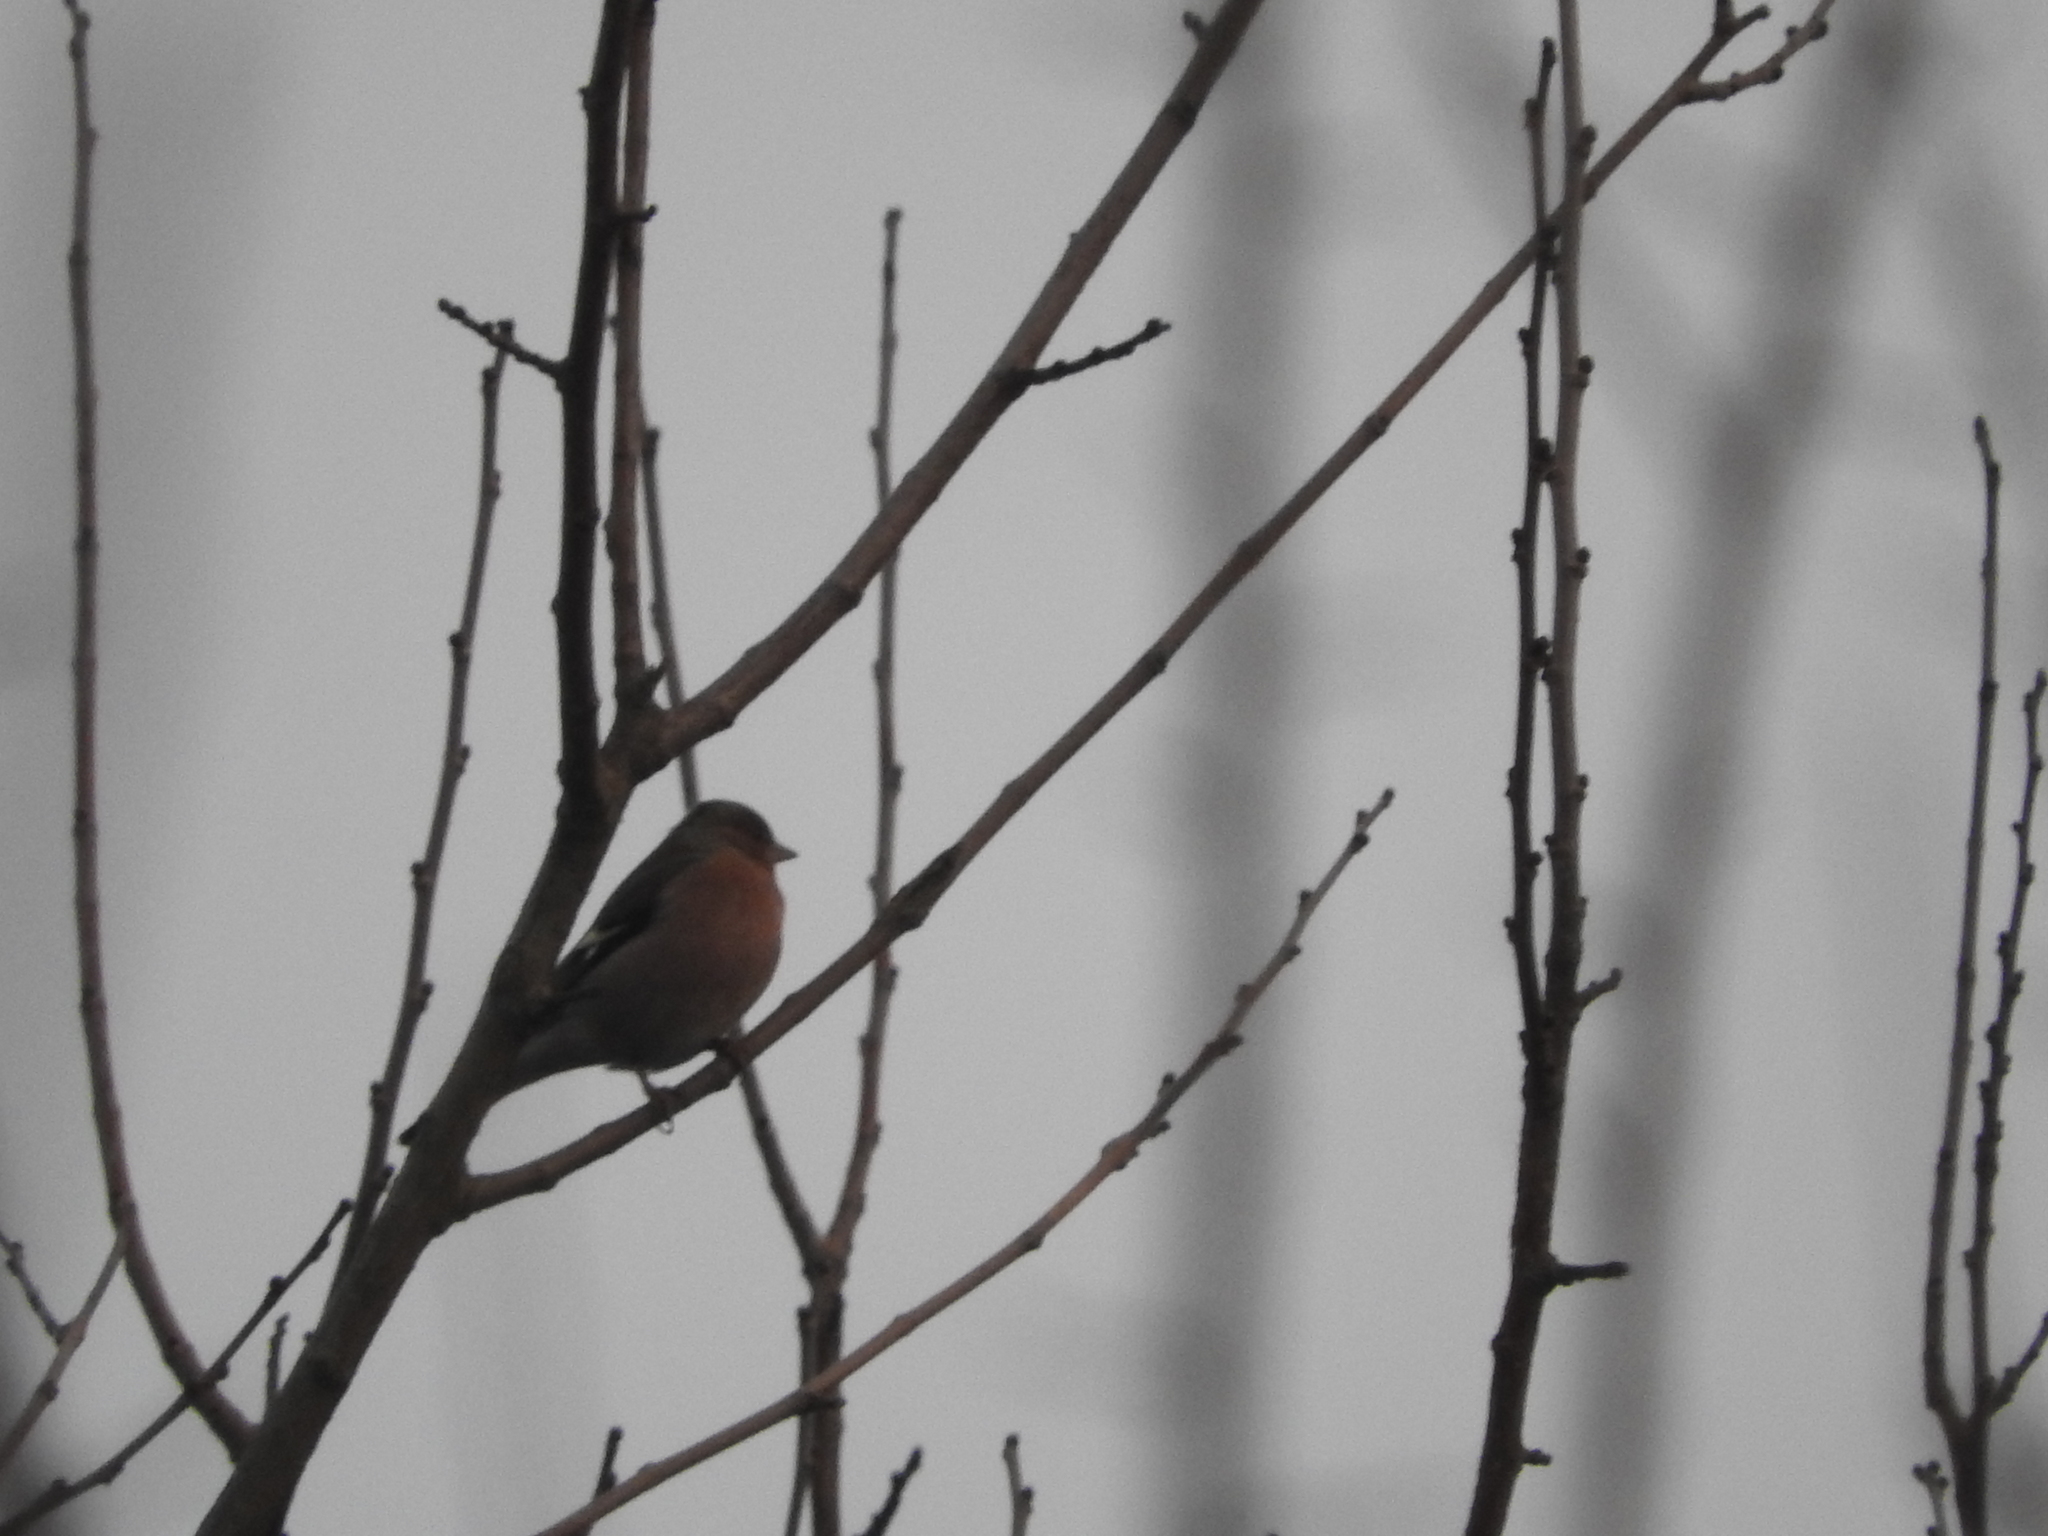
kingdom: Animalia
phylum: Chordata
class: Aves
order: Passeriformes
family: Fringillidae
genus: Fringilla
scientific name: Fringilla coelebs
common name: Common chaffinch
